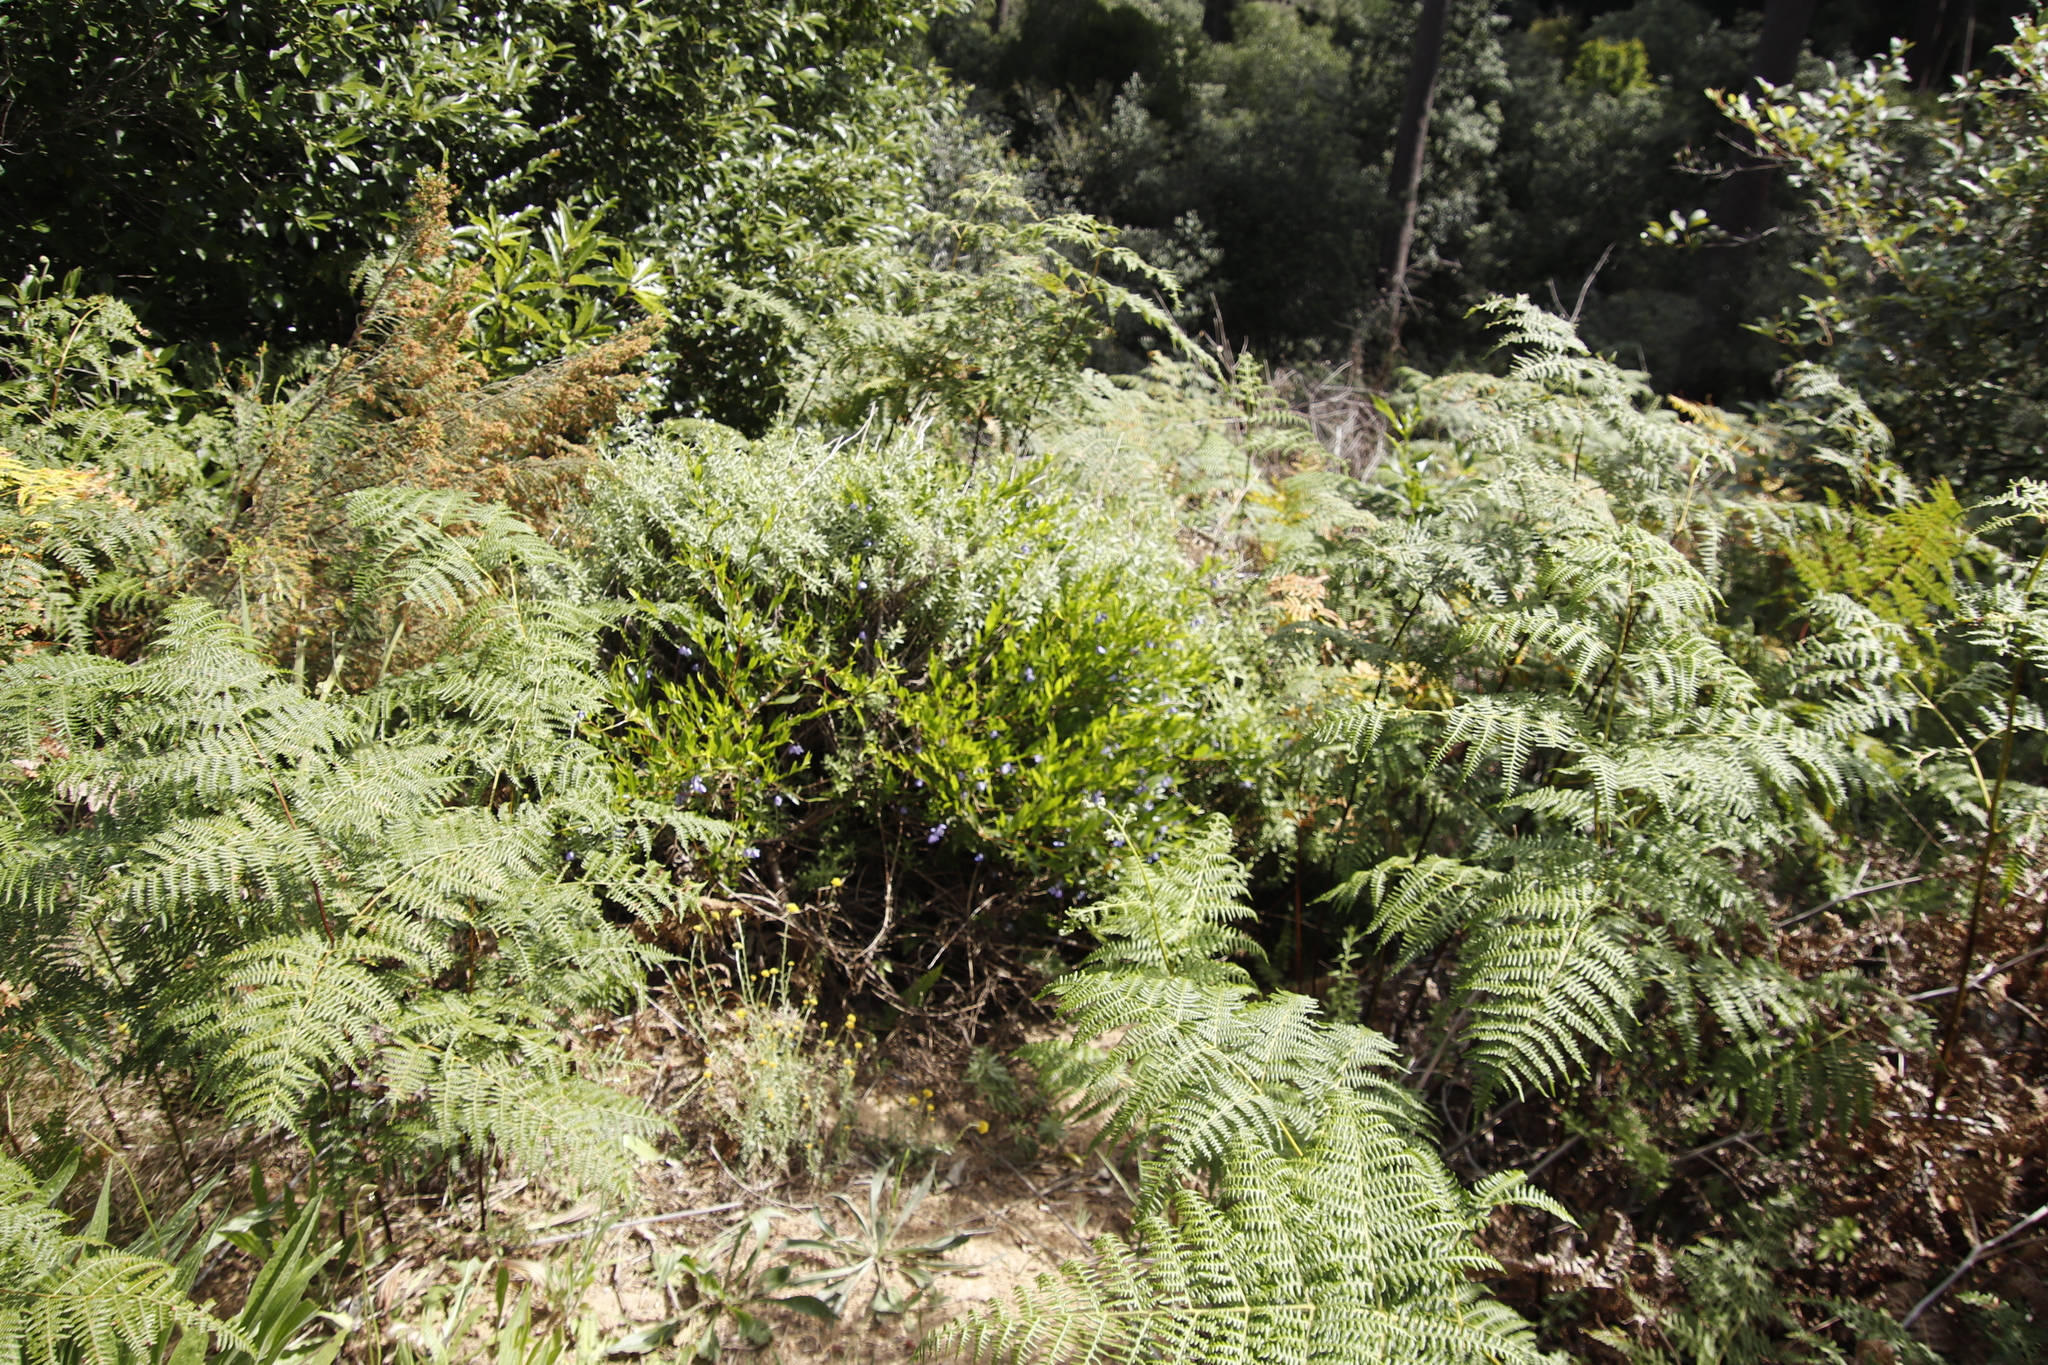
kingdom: Plantae
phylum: Tracheophyta
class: Polypodiopsida
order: Polypodiales
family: Dennstaedtiaceae
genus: Pteridium
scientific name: Pteridium aquilinum
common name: Bracken
